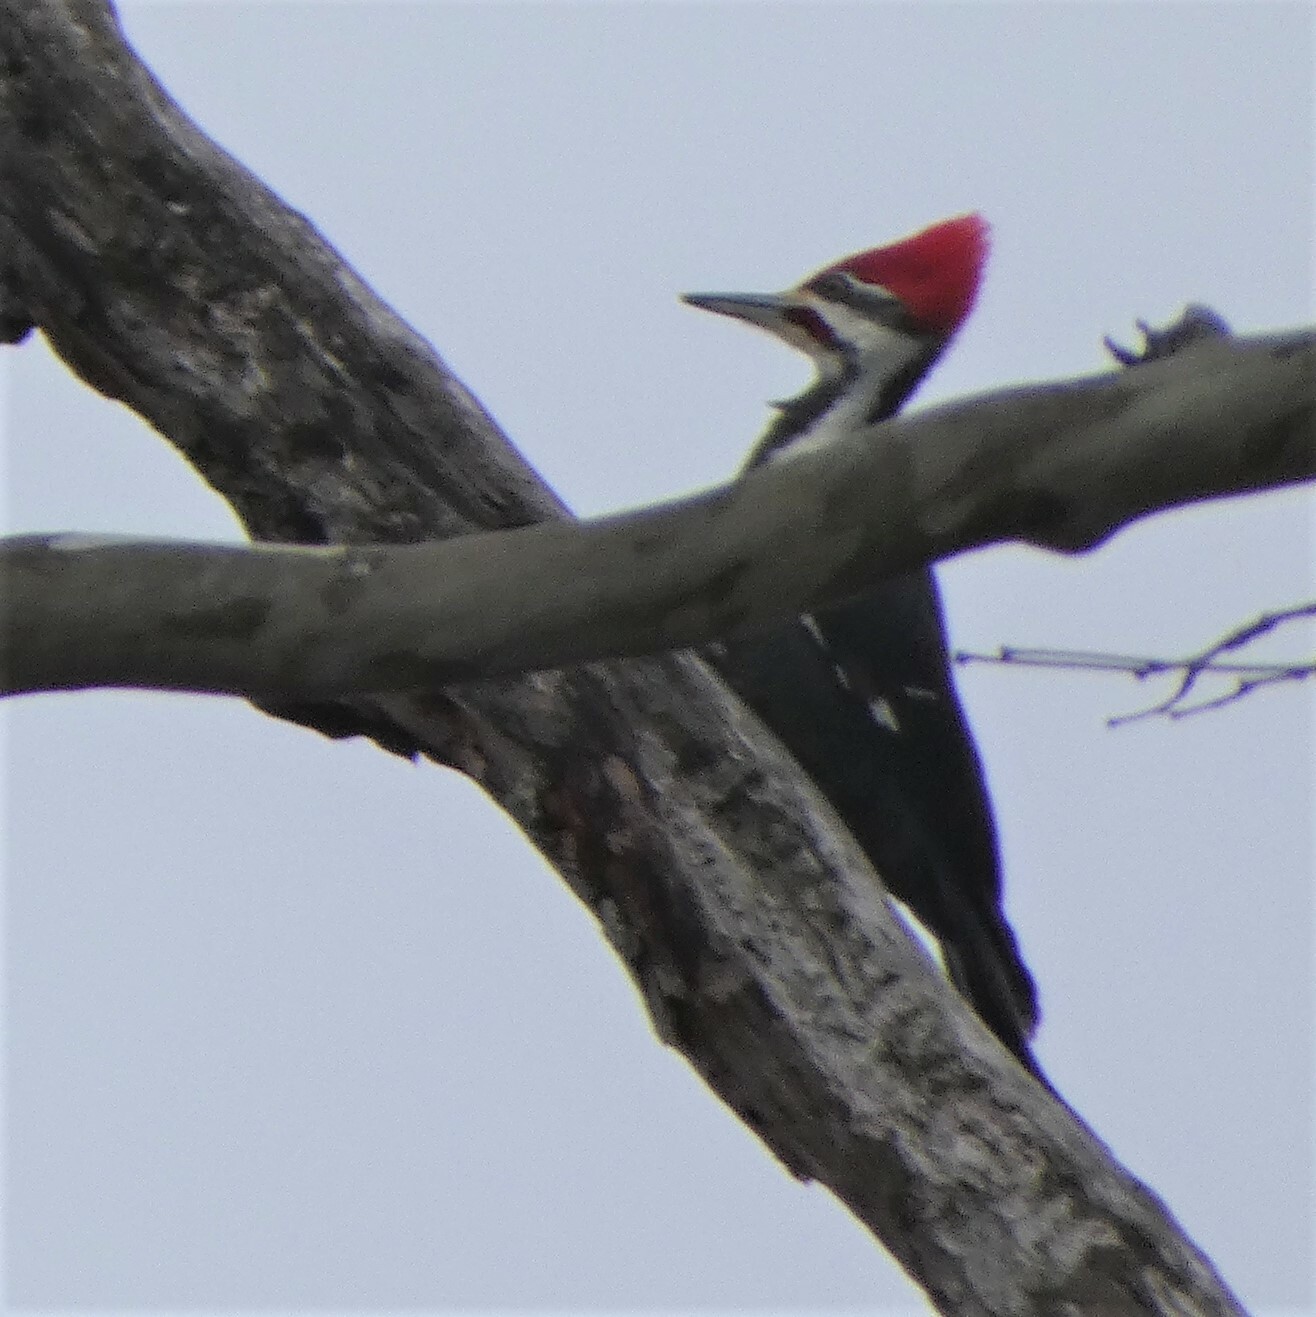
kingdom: Animalia
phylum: Chordata
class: Aves
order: Piciformes
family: Picidae
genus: Dryocopus
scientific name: Dryocopus pileatus
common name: Pileated woodpecker
